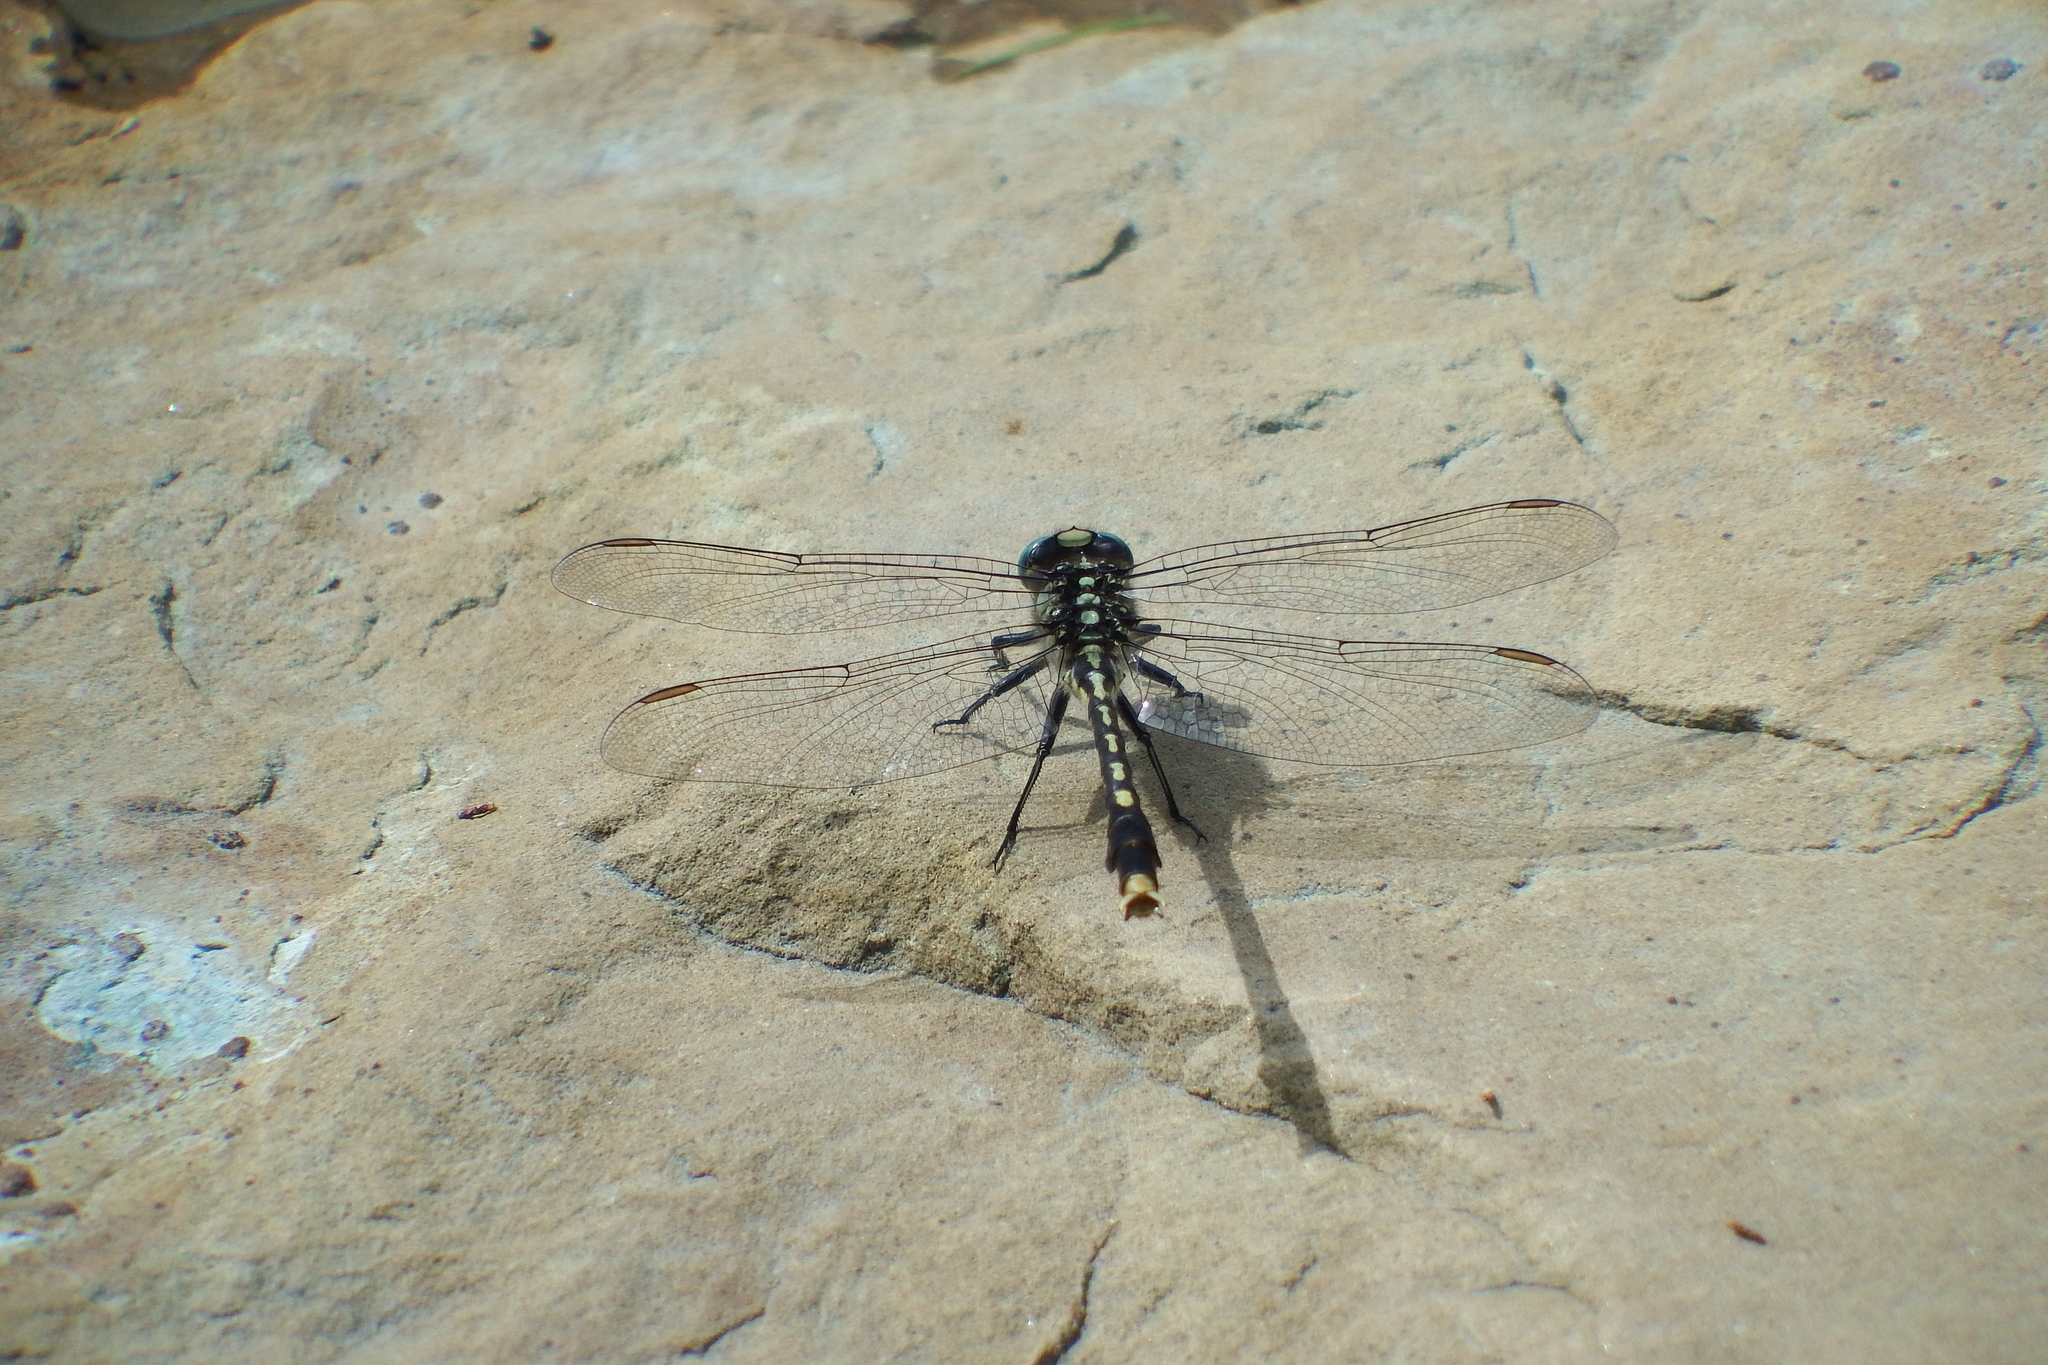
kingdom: Animalia
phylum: Arthropoda
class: Insecta
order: Odonata
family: Gomphidae
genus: Arigomphus
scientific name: Arigomphus villosipes
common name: Unicorn clubtail
